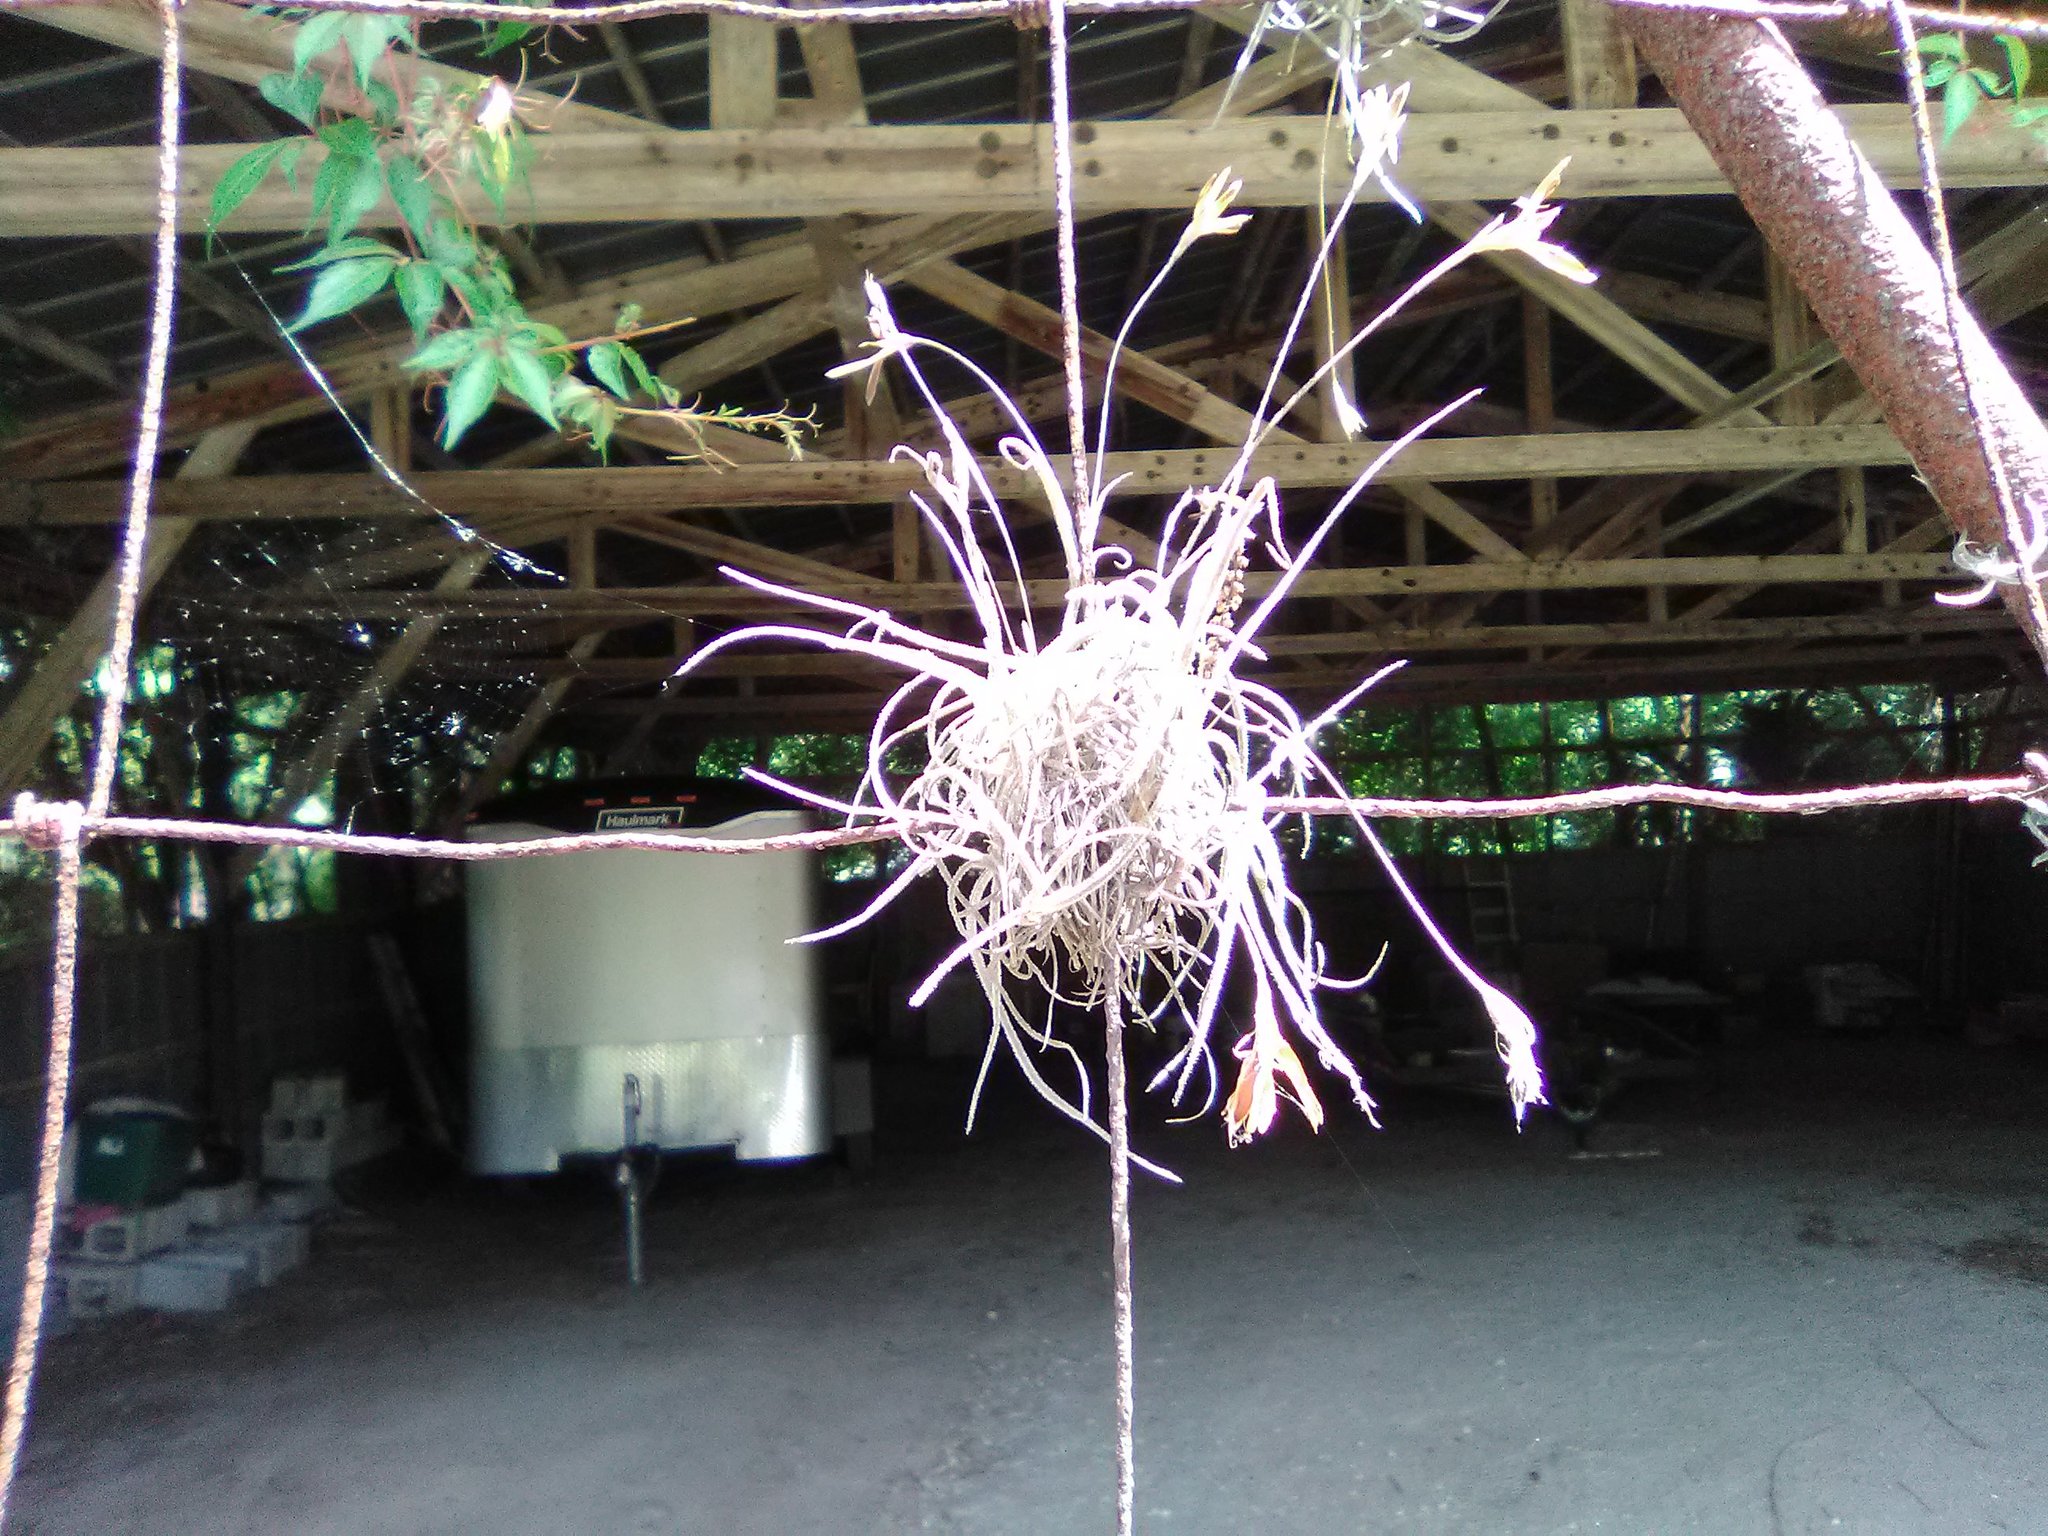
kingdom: Plantae
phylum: Tracheophyta
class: Liliopsida
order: Poales
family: Bromeliaceae
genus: Tillandsia
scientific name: Tillandsia recurvata
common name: Small ballmoss
